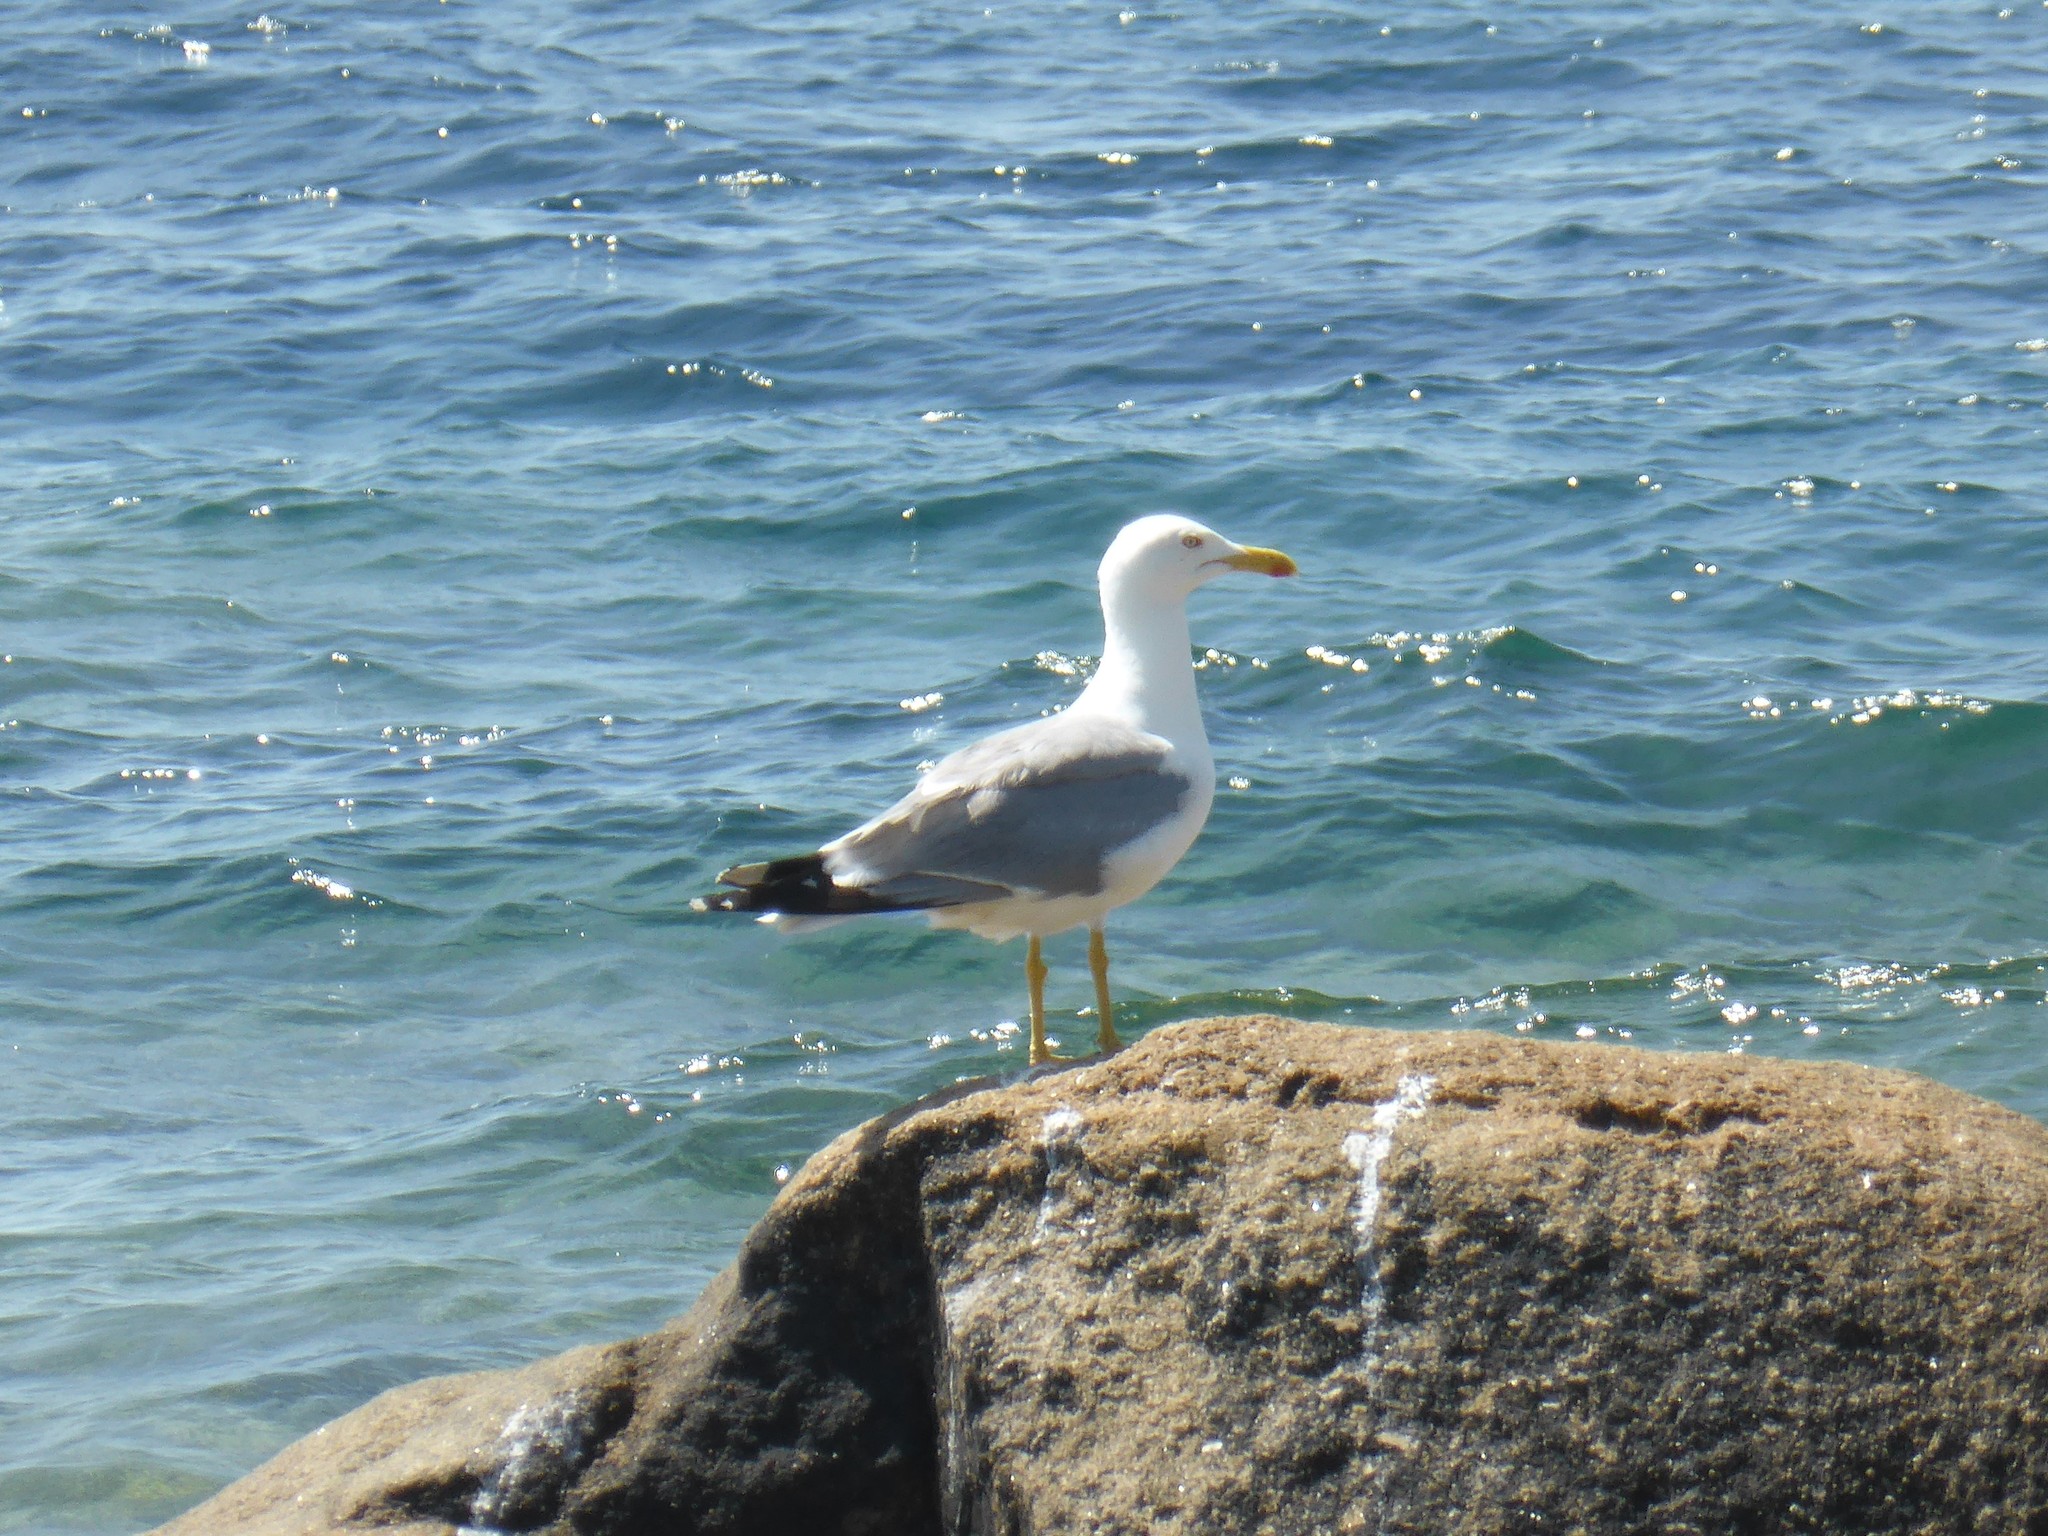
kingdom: Animalia
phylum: Chordata
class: Aves
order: Charadriiformes
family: Laridae
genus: Larus
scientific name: Larus michahellis
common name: Yellow-legged gull
